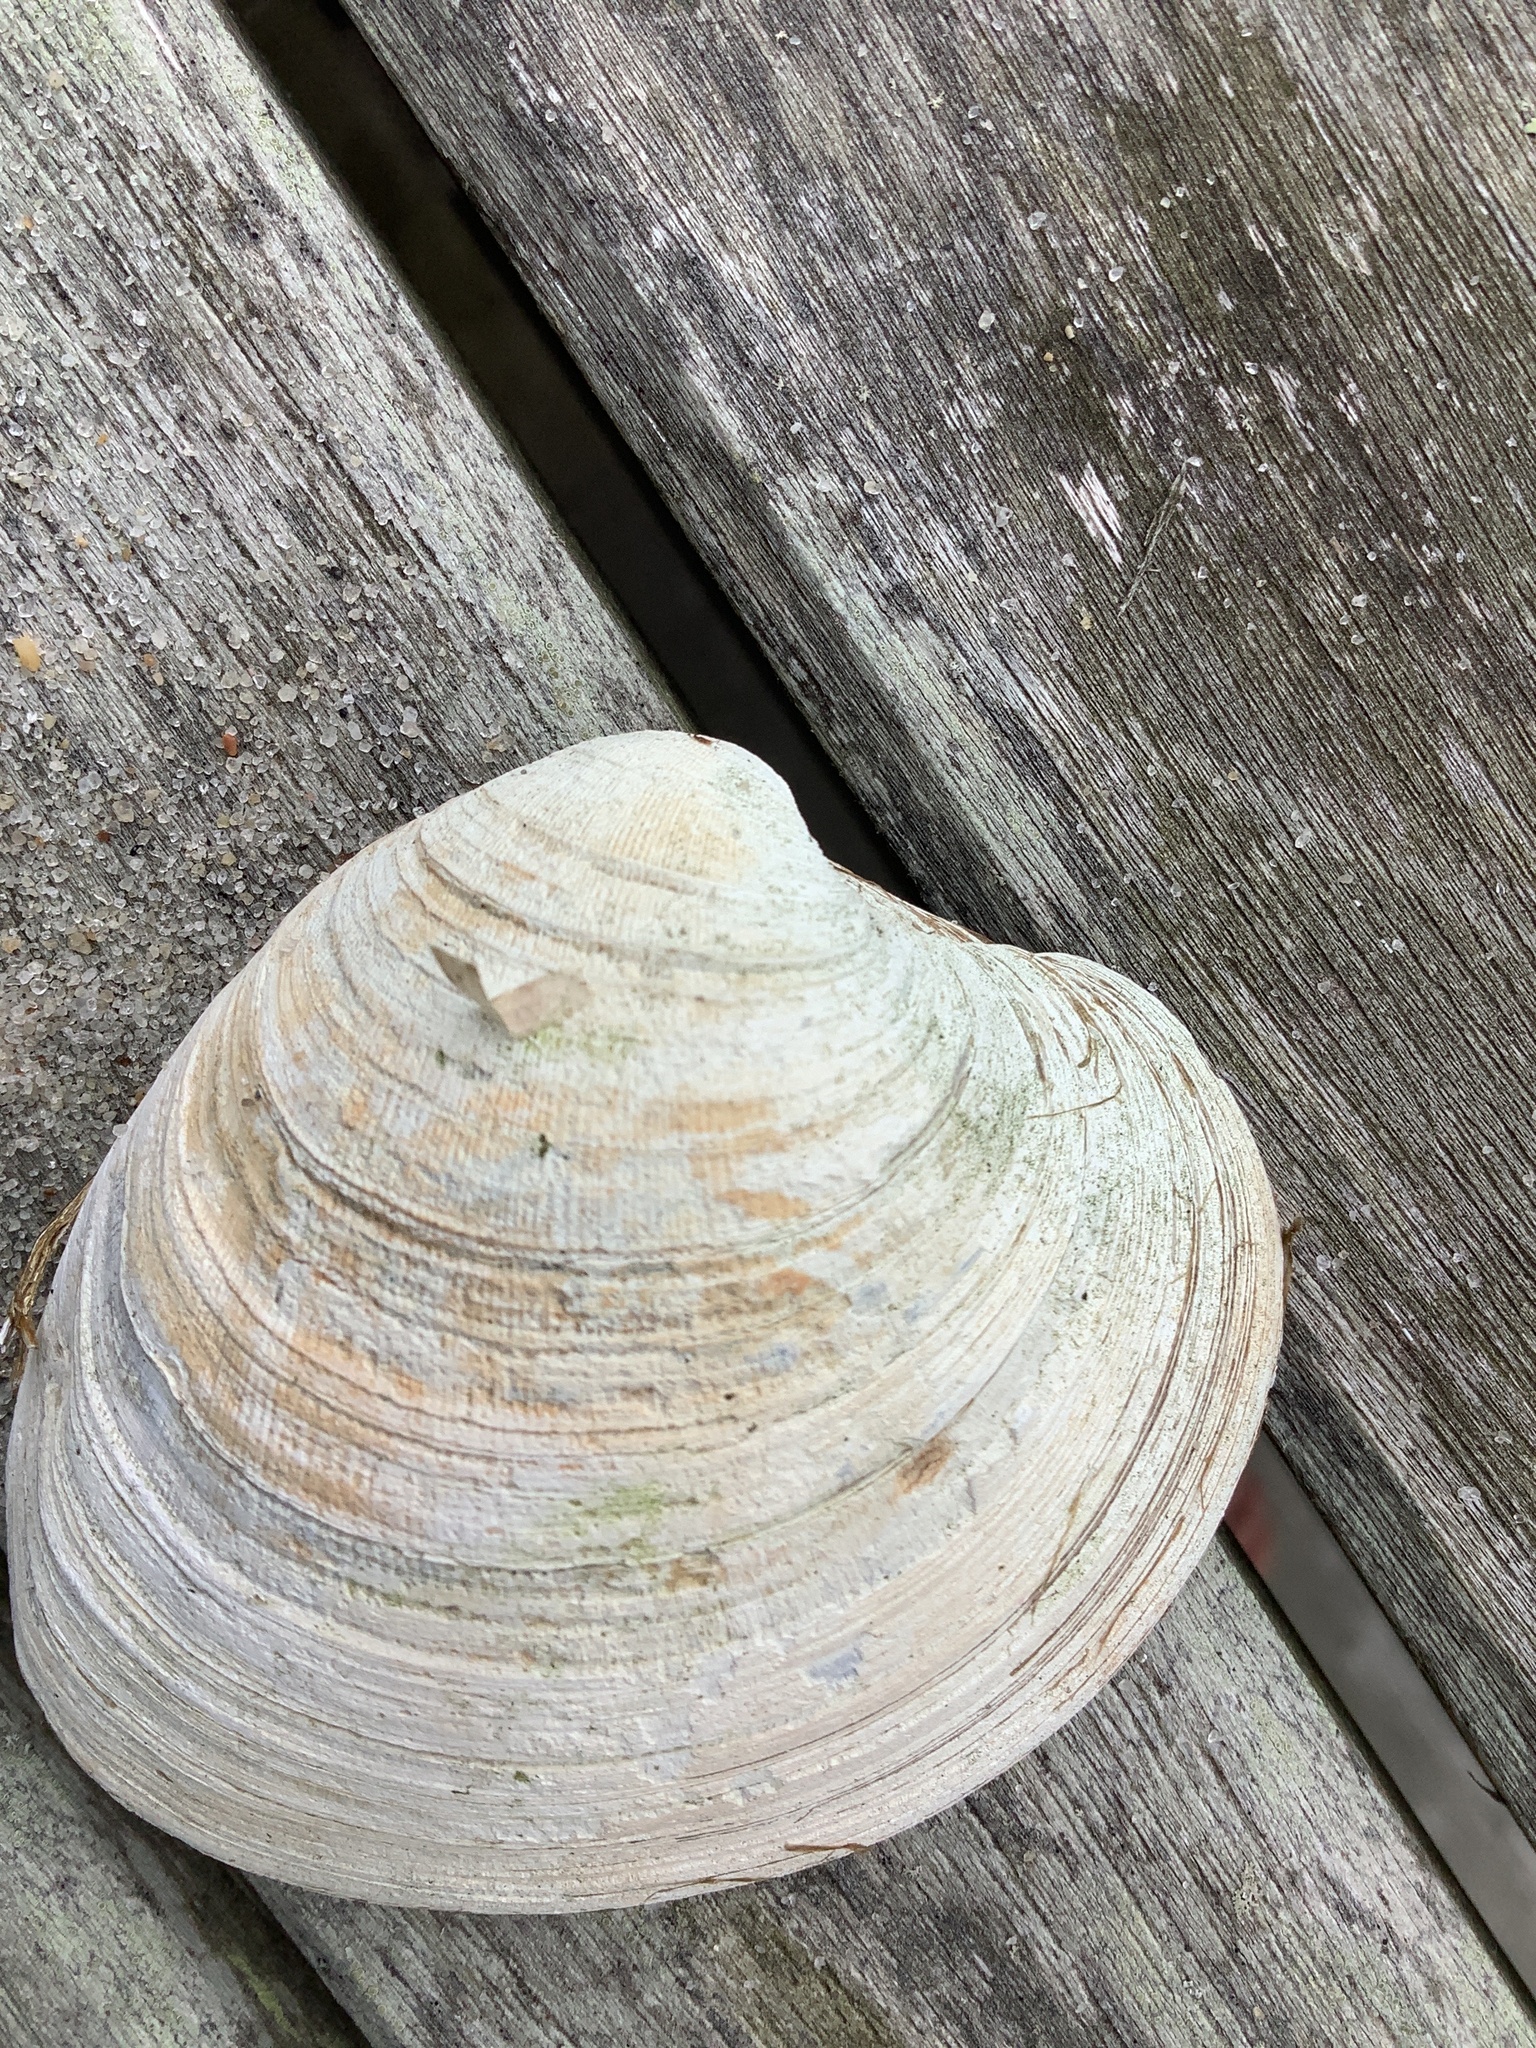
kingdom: Animalia
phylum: Mollusca
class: Bivalvia
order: Venerida
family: Veneridae
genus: Mercenaria
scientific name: Mercenaria mercenaria
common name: American hard-shelled clam
